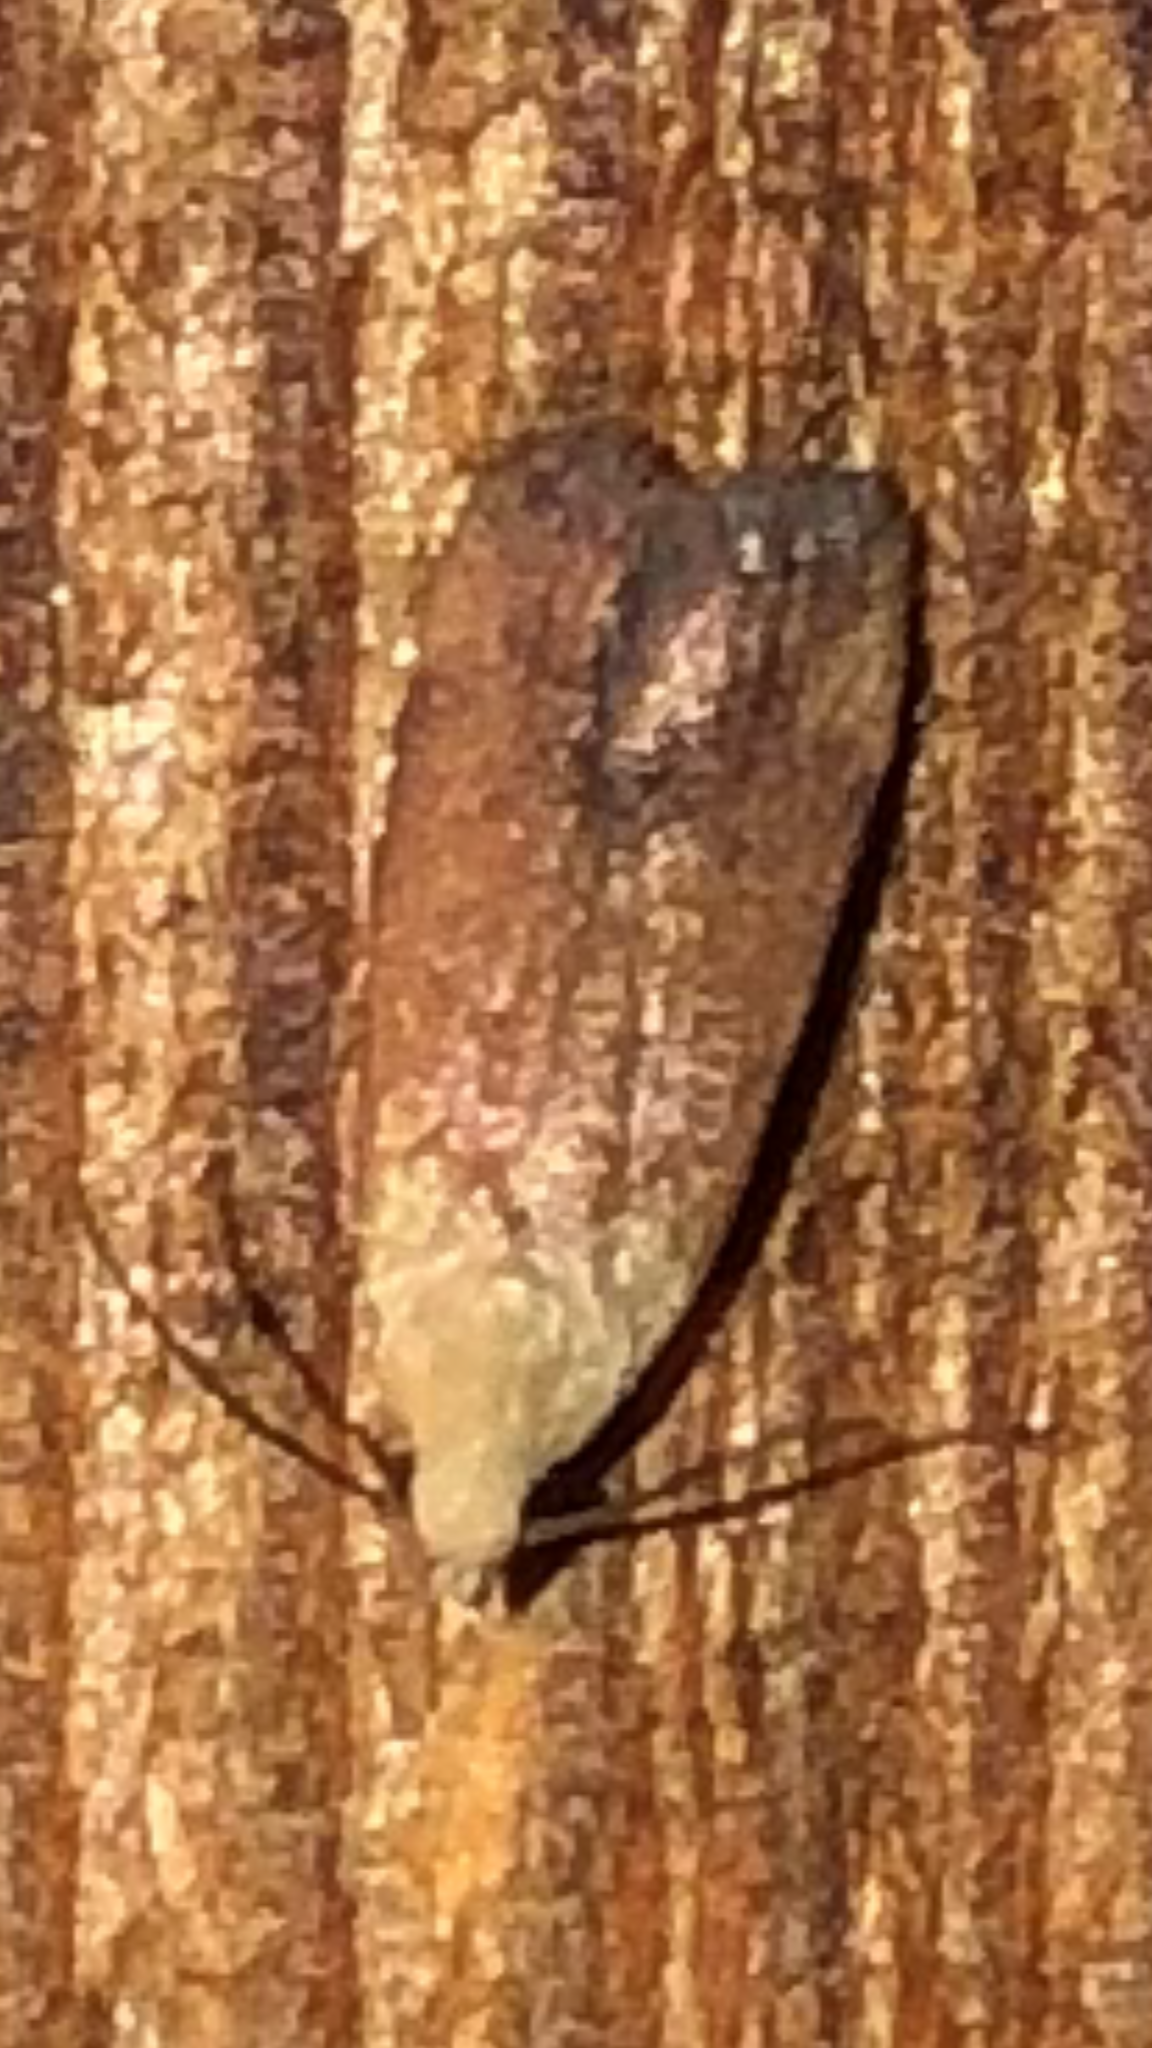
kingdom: Animalia
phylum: Arthropoda
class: Insecta
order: Lepidoptera
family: Gelechiidae
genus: Anacampsis
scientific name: Anacampsis fullonella
